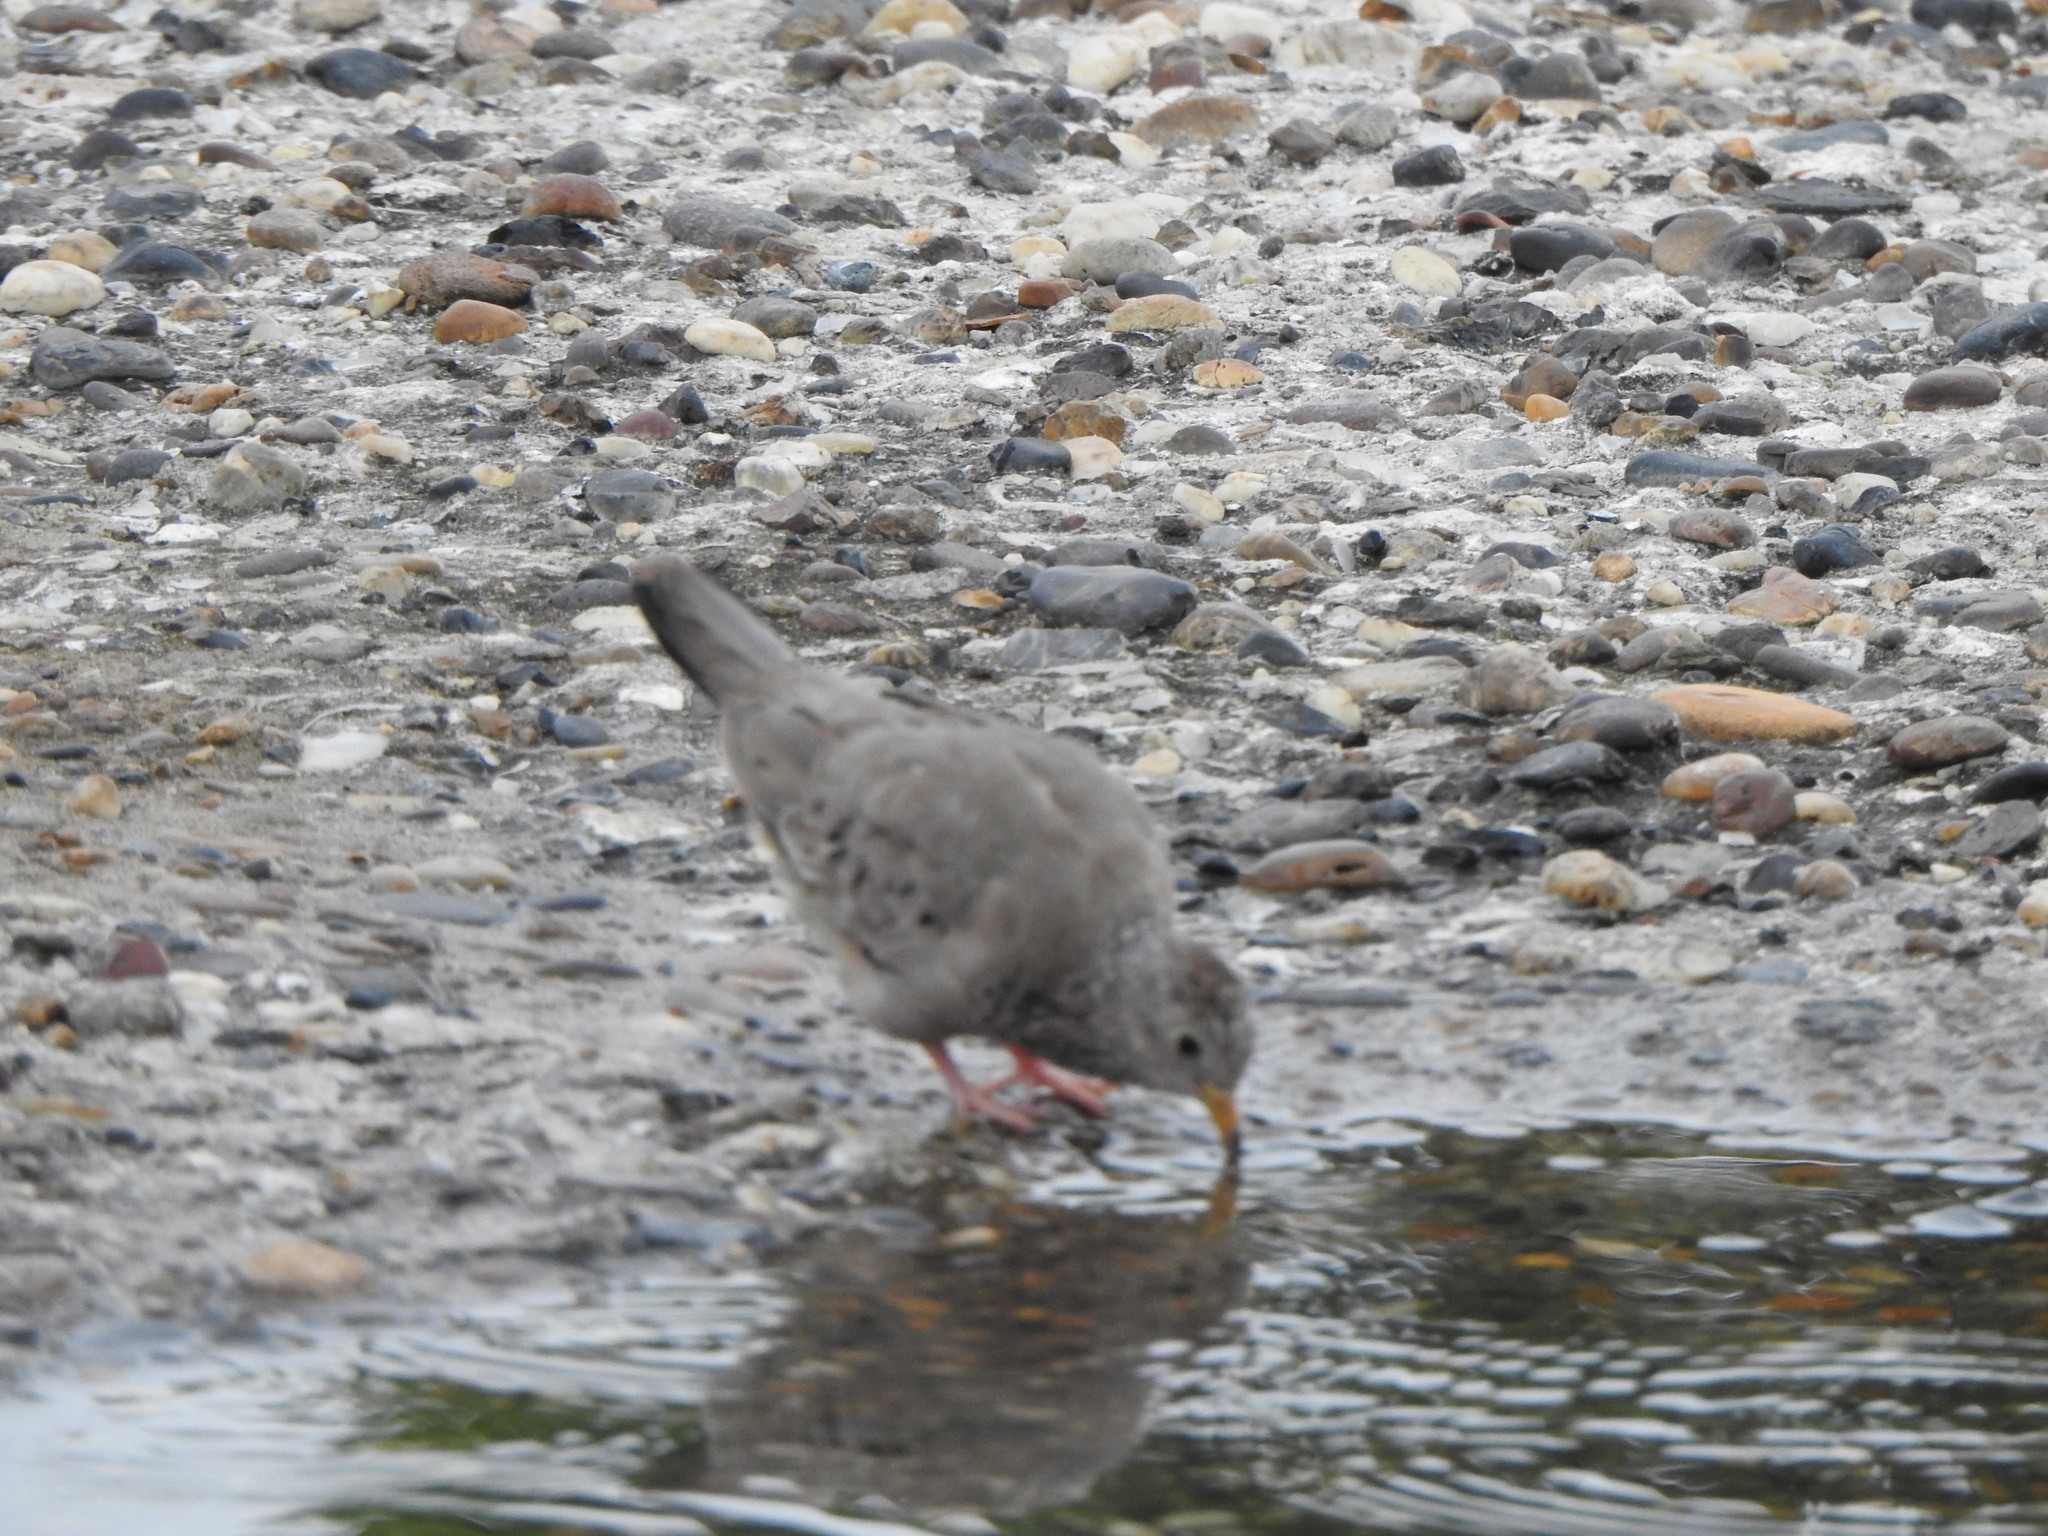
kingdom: Animalia
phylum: Chordata
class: Aves
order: Columbiformes
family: Columbidae
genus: Columbina
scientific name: Columbina passerina
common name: Common ground-dove
